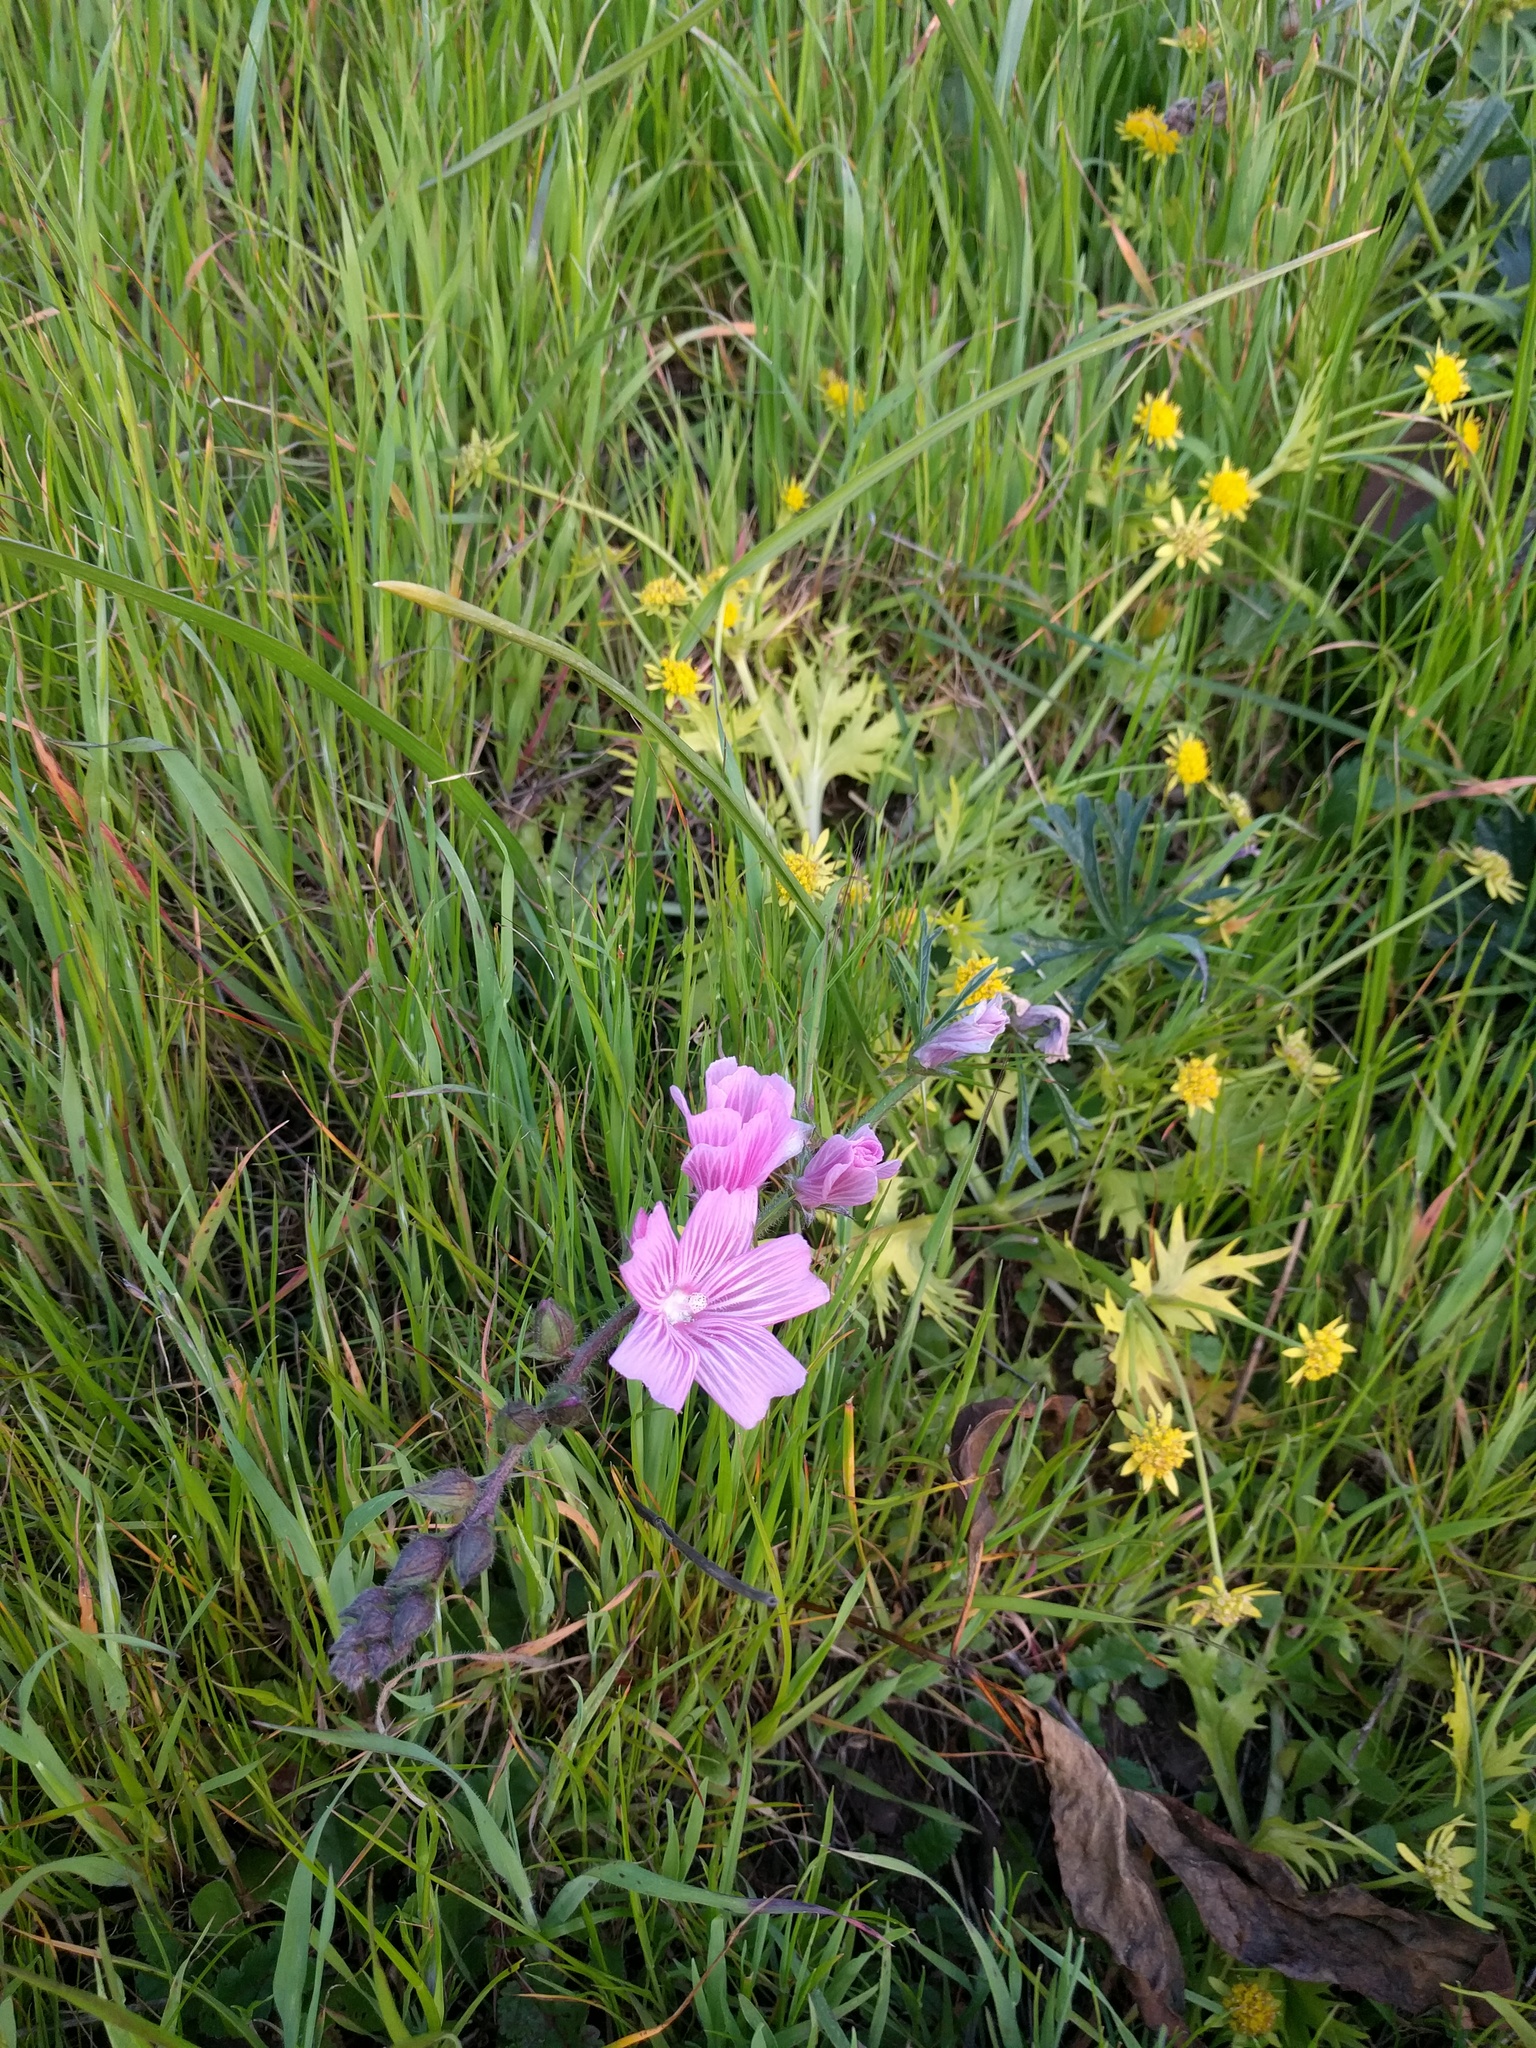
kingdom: Plantae
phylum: Tracheophyta
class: Magnoliopsida
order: Malvales
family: Malvaceae
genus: Sidalcea
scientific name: Sidalcea malviflora
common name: Greek mallow
